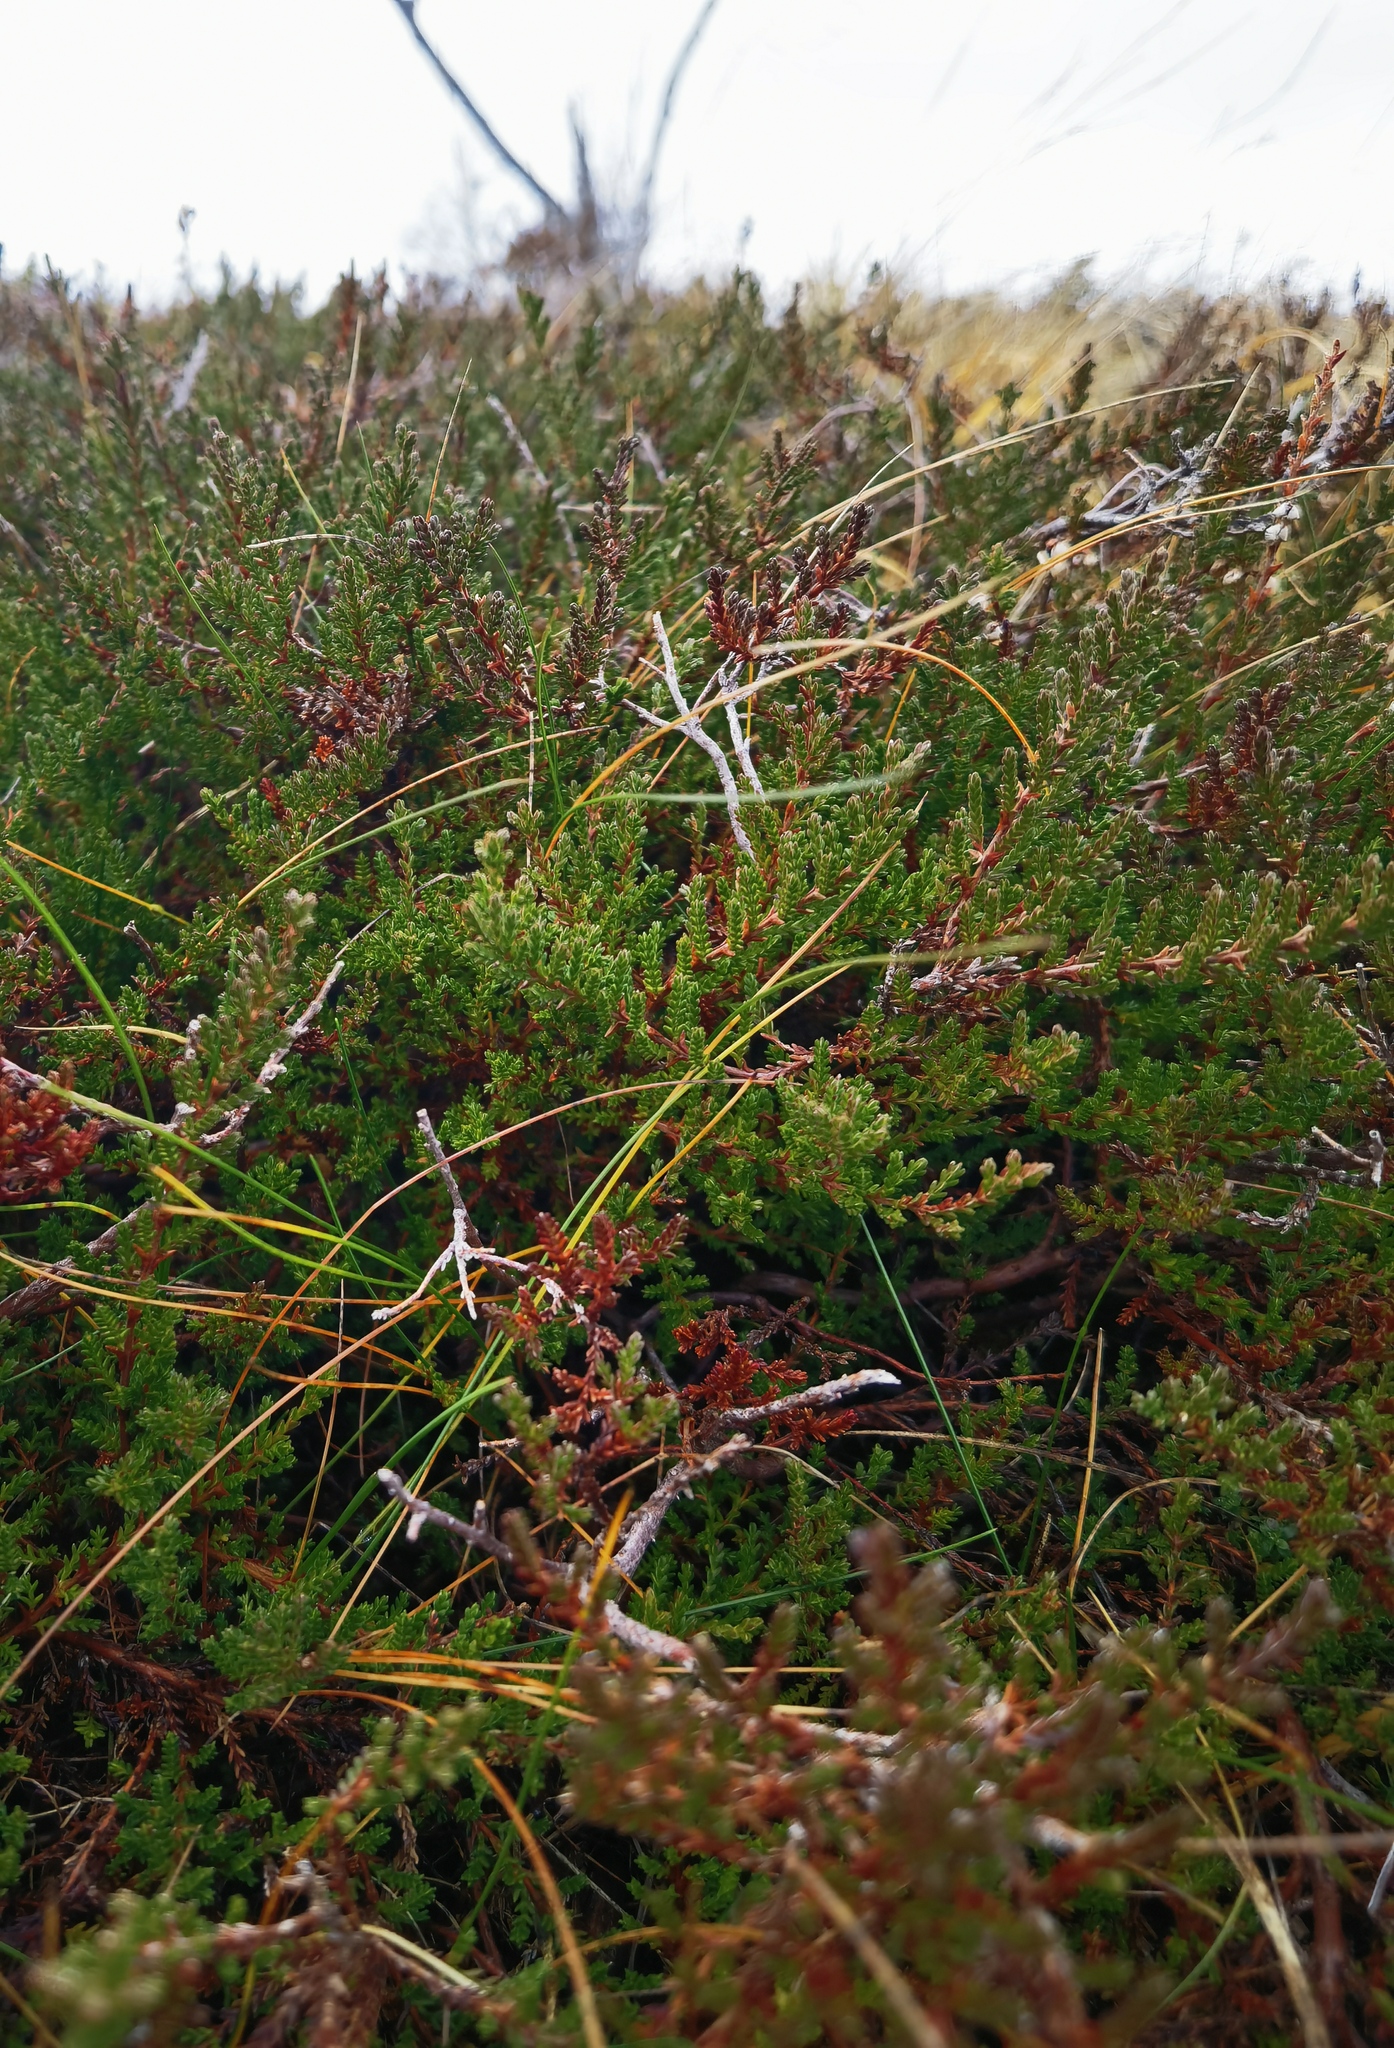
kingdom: Plantae
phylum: Tracheophyta
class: Magnoliopsida
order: Ericales
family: Ericaceae
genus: Calluna
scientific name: Calluna vulgaris
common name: Heather
